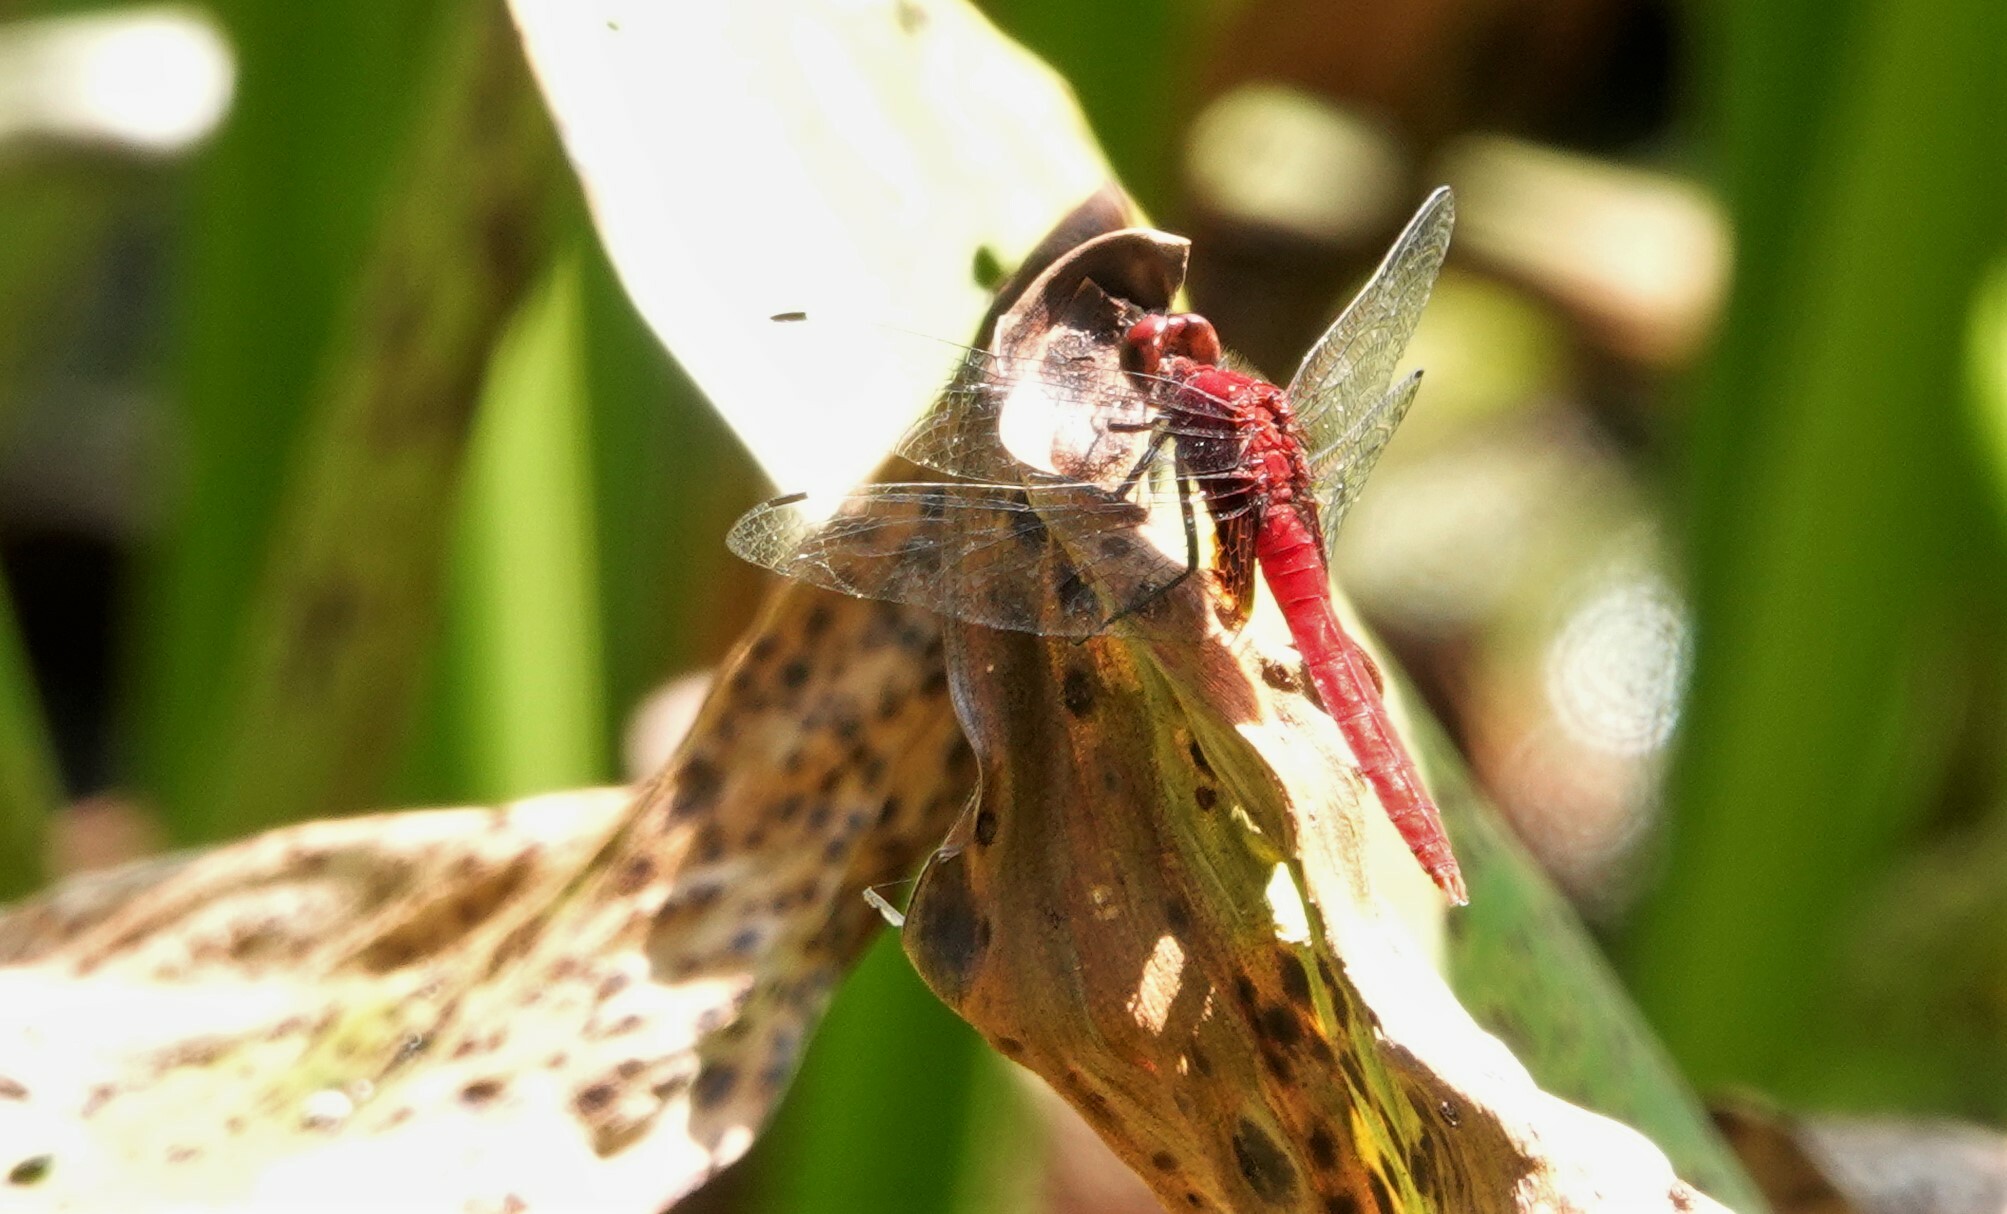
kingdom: Animalia
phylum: Arthropoda
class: Insecta
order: Odonata
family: Libellulidae
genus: Erythemis
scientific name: Erythemis mithroides
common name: Claret pondhawk
